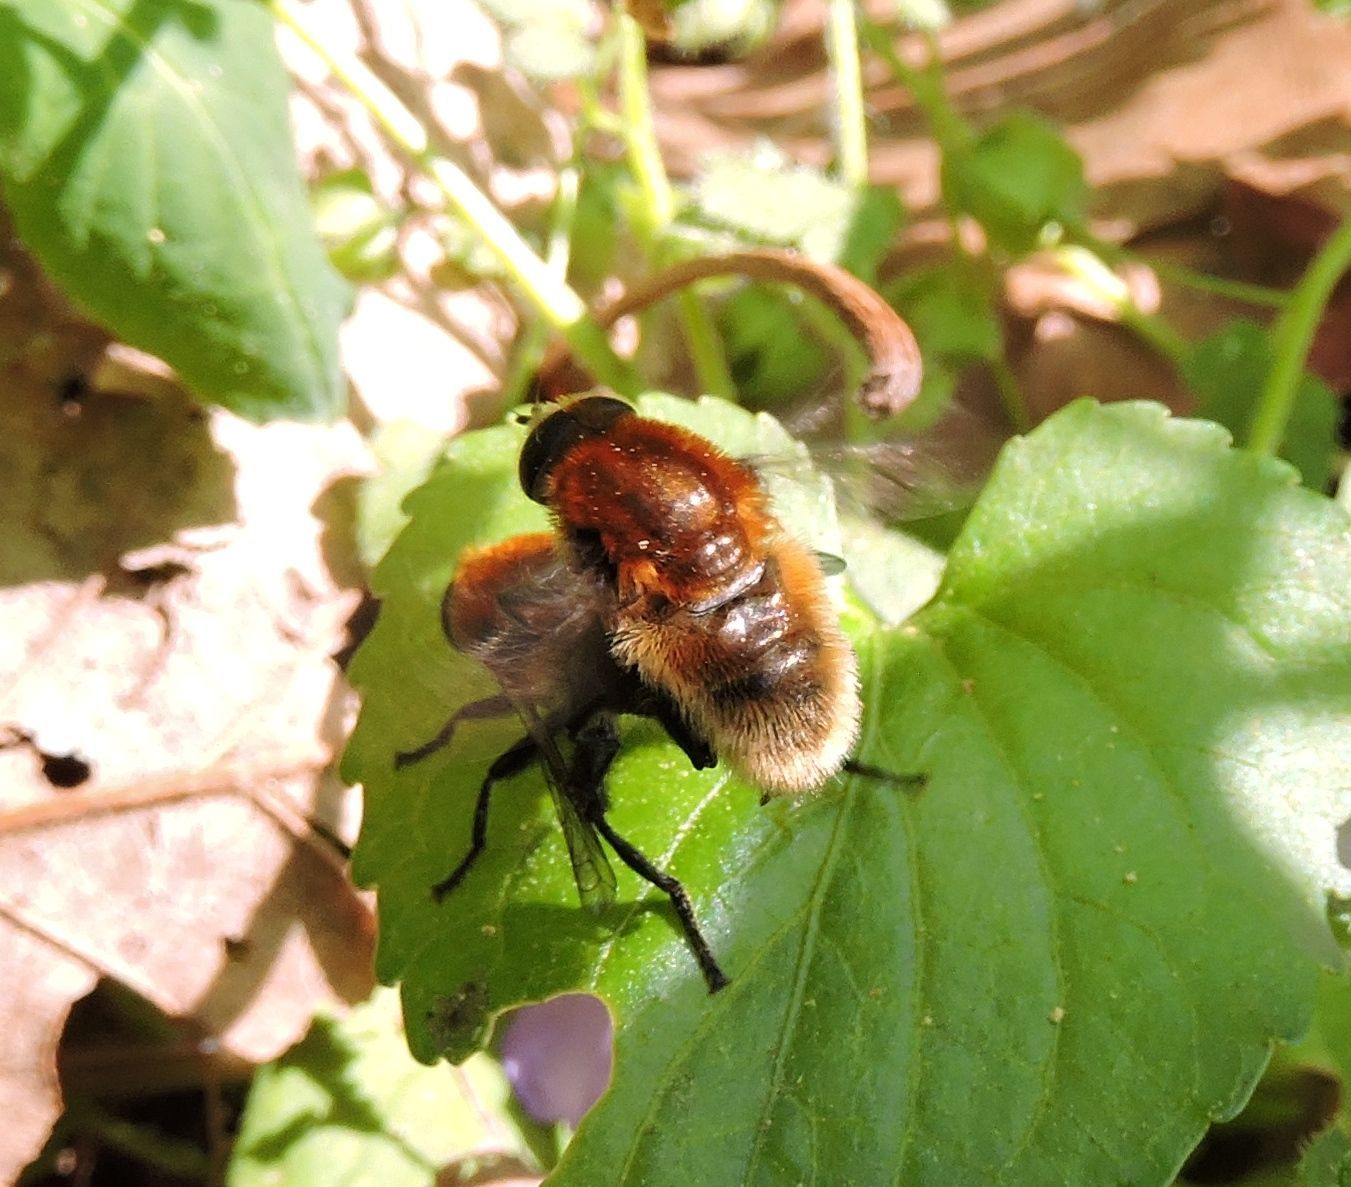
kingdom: Animalia
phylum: Arthropoda
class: Insecta
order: Diptera
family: Syrphidae
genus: Merodon
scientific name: Merodon equestris
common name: Greater bulb-fly
